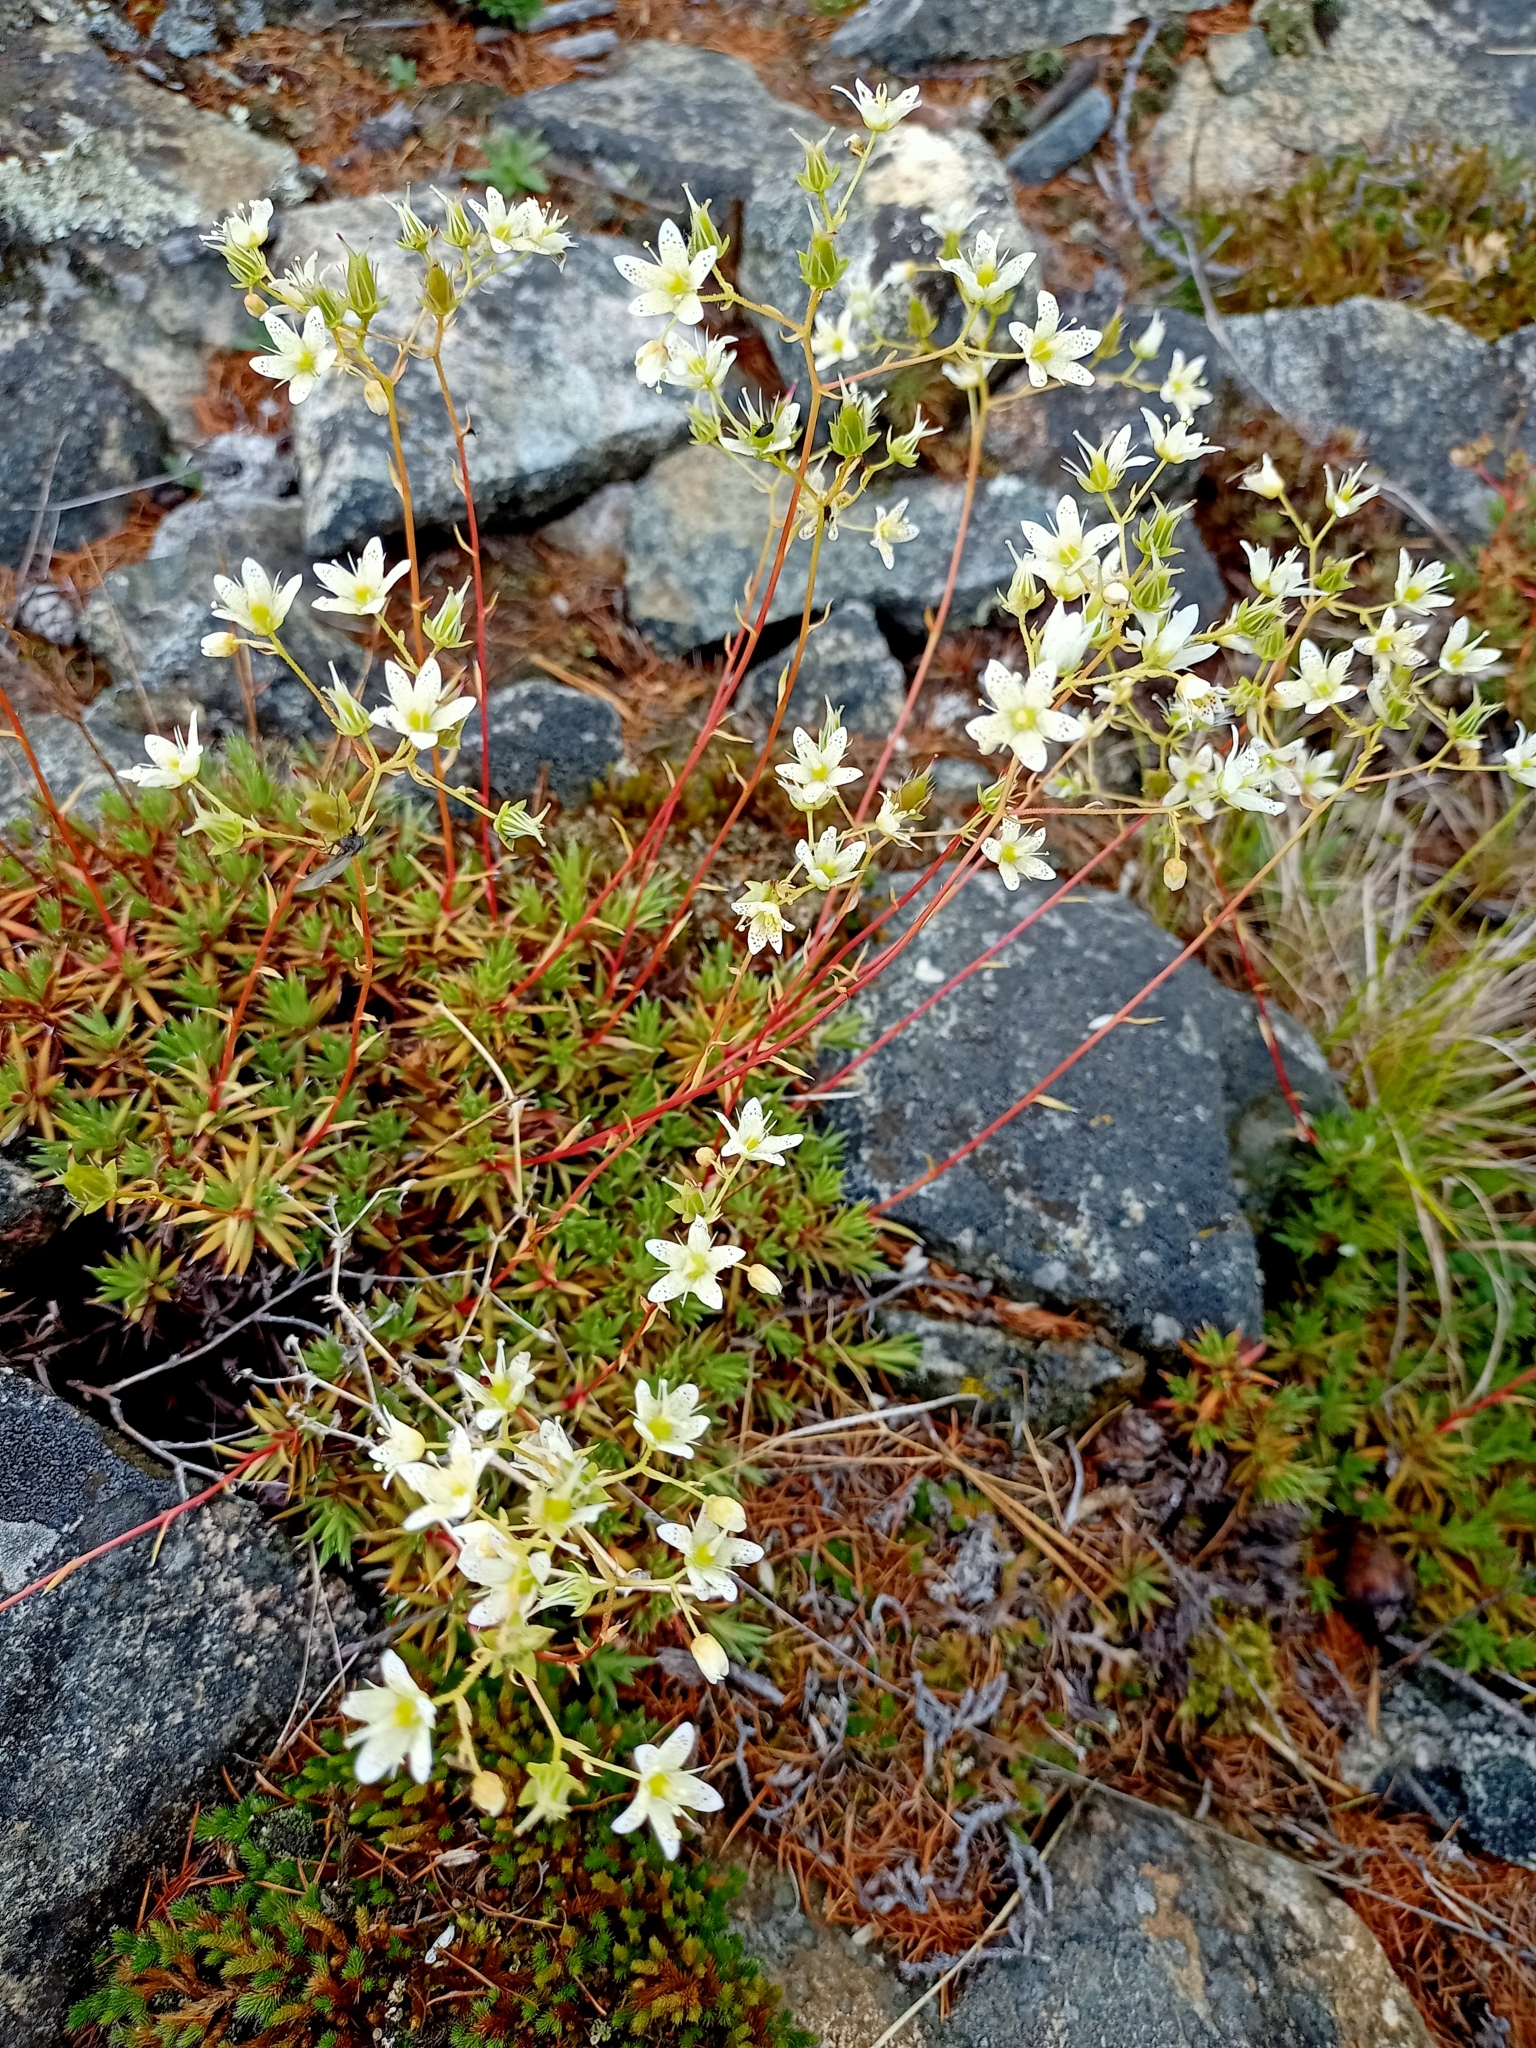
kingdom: Plantae
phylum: Tracheophyta
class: Magnoliopsida
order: Saxifragales
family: Saxifragaceae
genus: Saxifraga
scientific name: Saxifraga bronchialis
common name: Matted saxifrage
